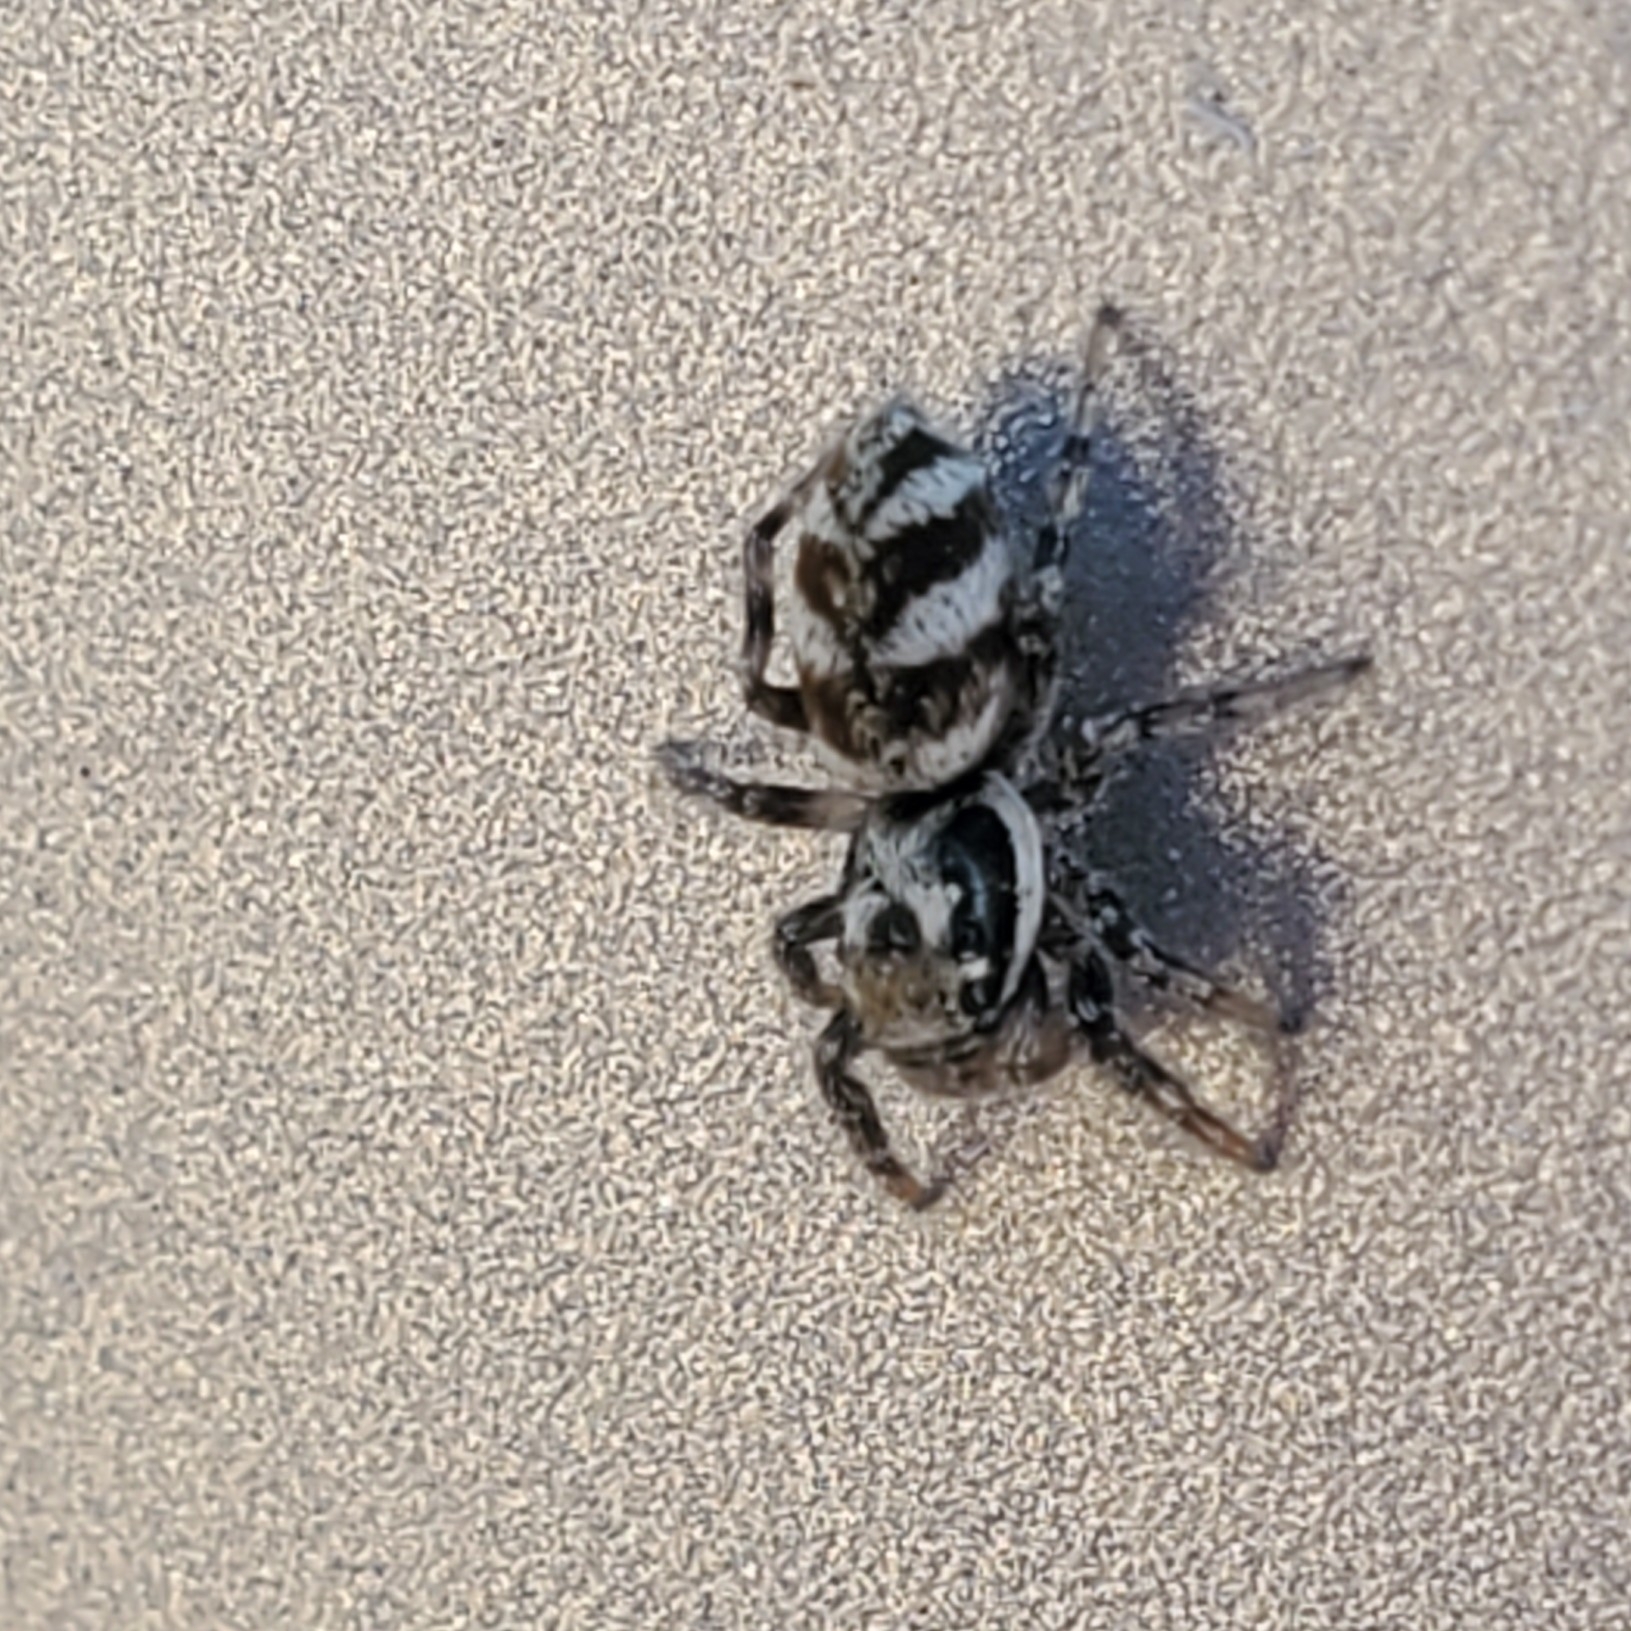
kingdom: Animalia
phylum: Arthropoda
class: Arachnida
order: Araneae
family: Salticidae
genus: Salticus
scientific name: Salticus scenicus
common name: Zebra jumper
